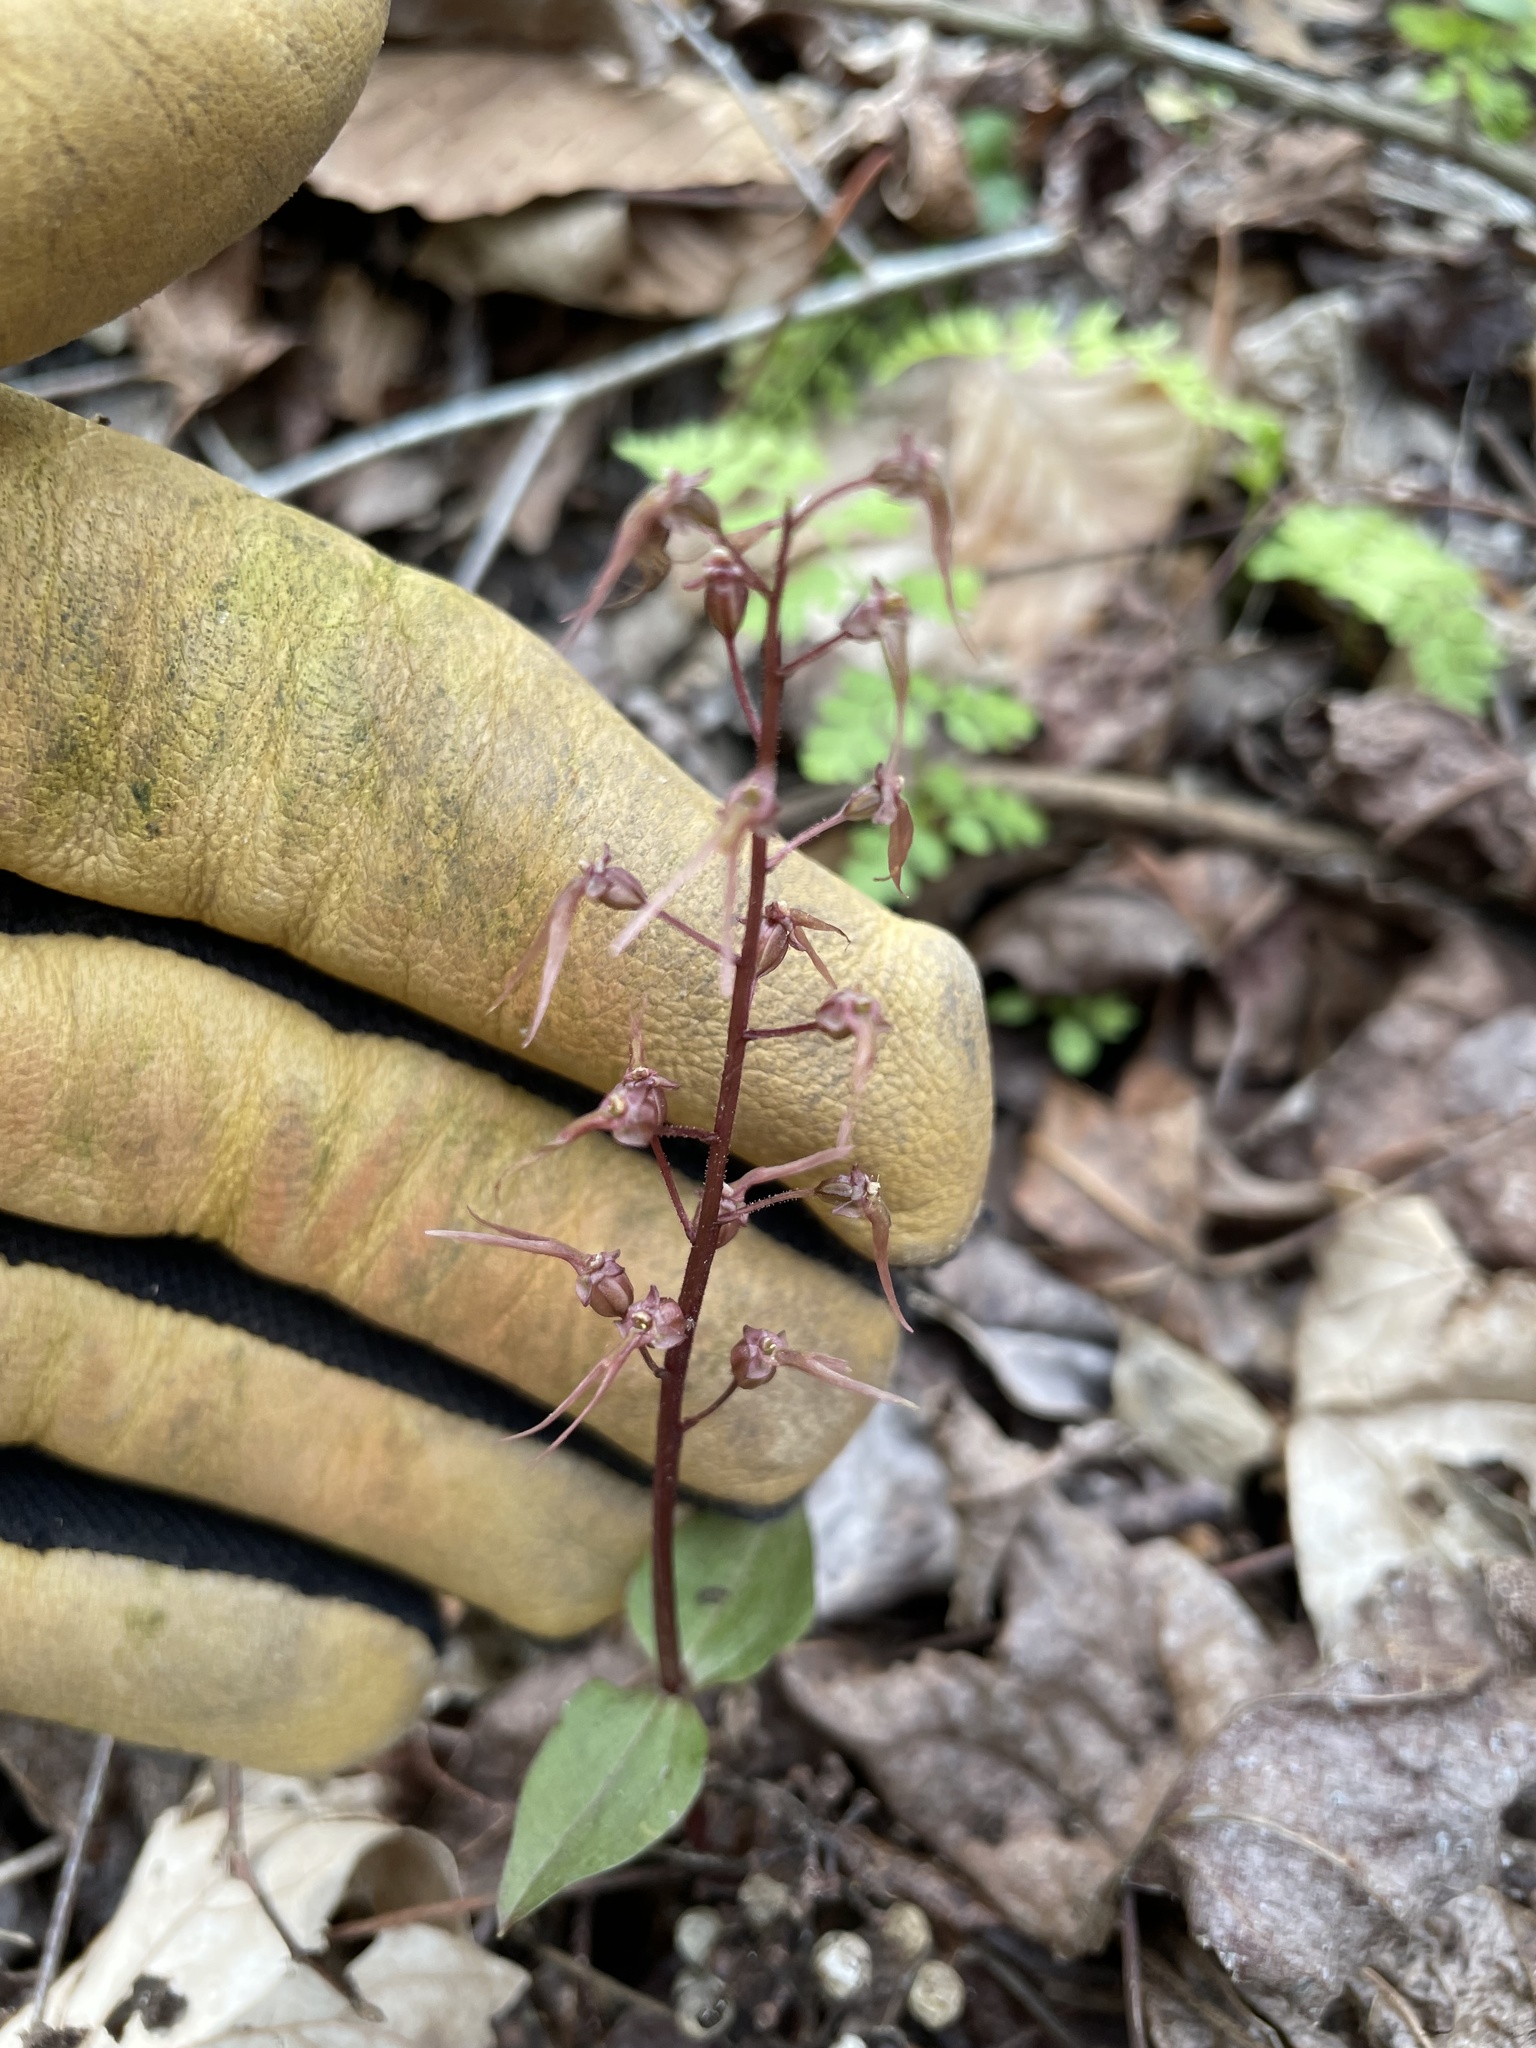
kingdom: Plantae
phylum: Tracheophyta
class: Liliopsida
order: Asparagales
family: Orchidaceae
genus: Neottia
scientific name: Neottia bifolia
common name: Southern twayblade
